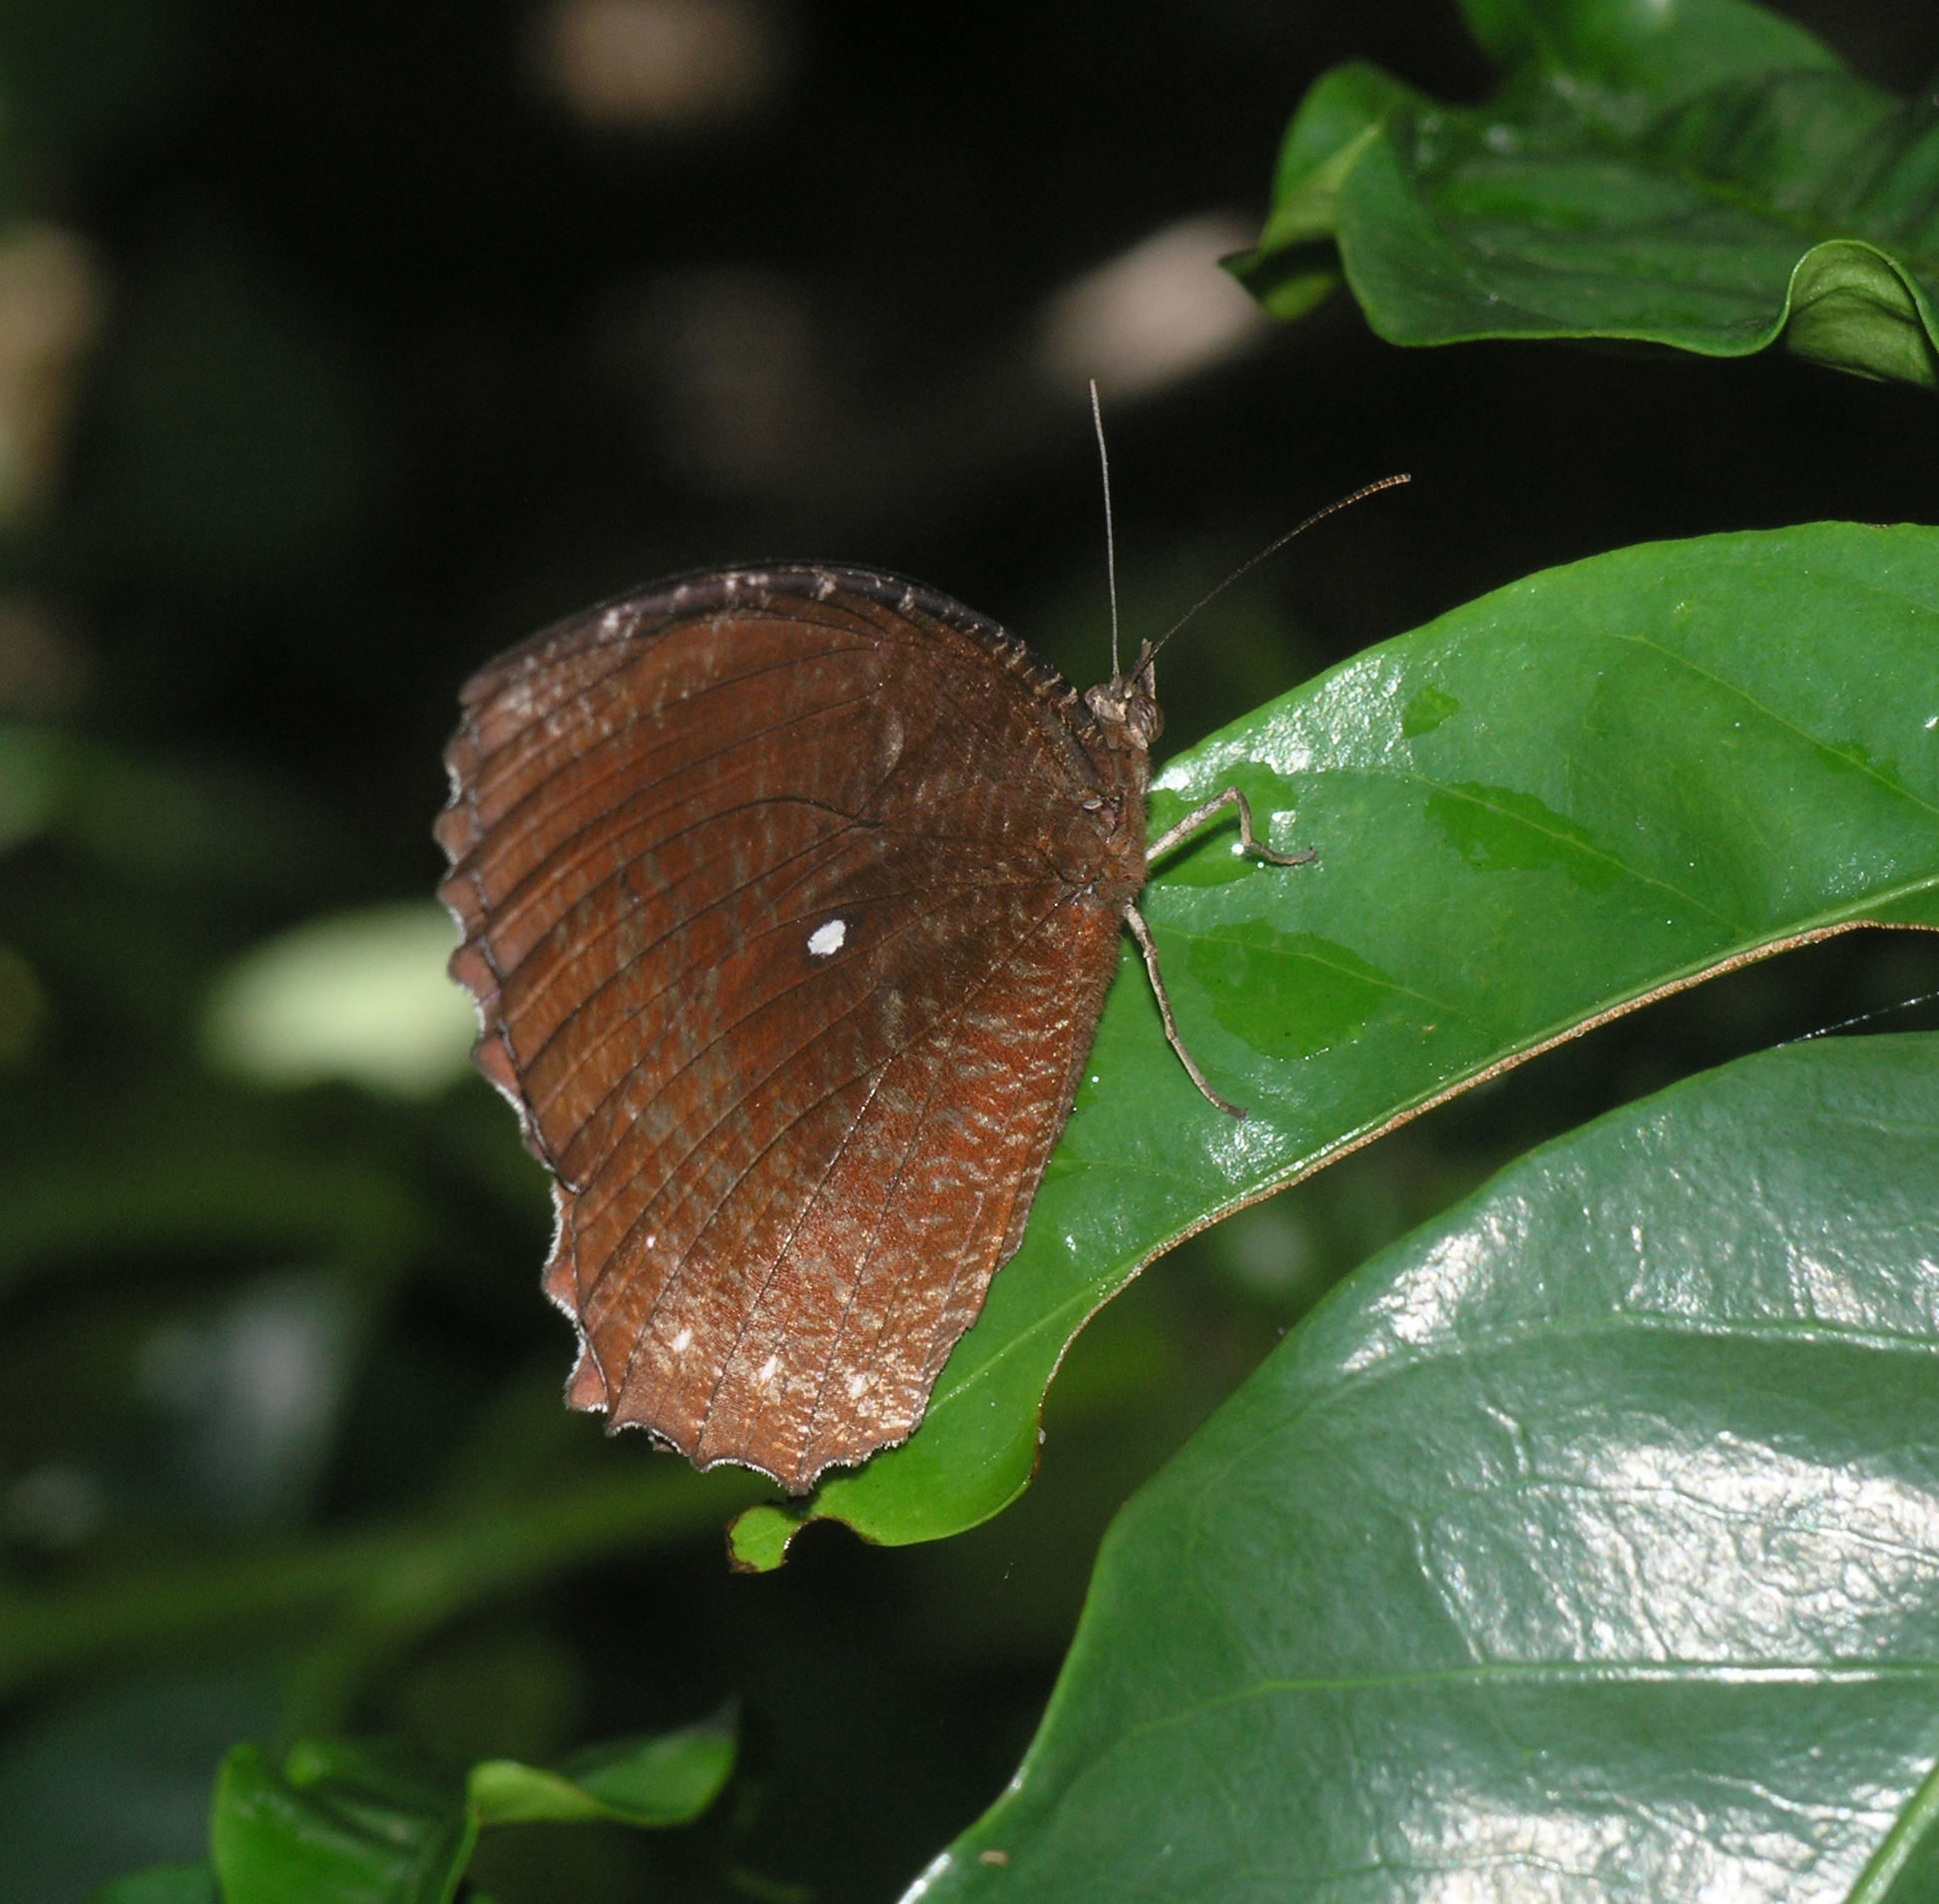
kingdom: Animalia
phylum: Arthropoda
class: Insecta
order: Lepidoptera
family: Nymphalidae
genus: Elymnias
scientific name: Elymnias hypermnestra
